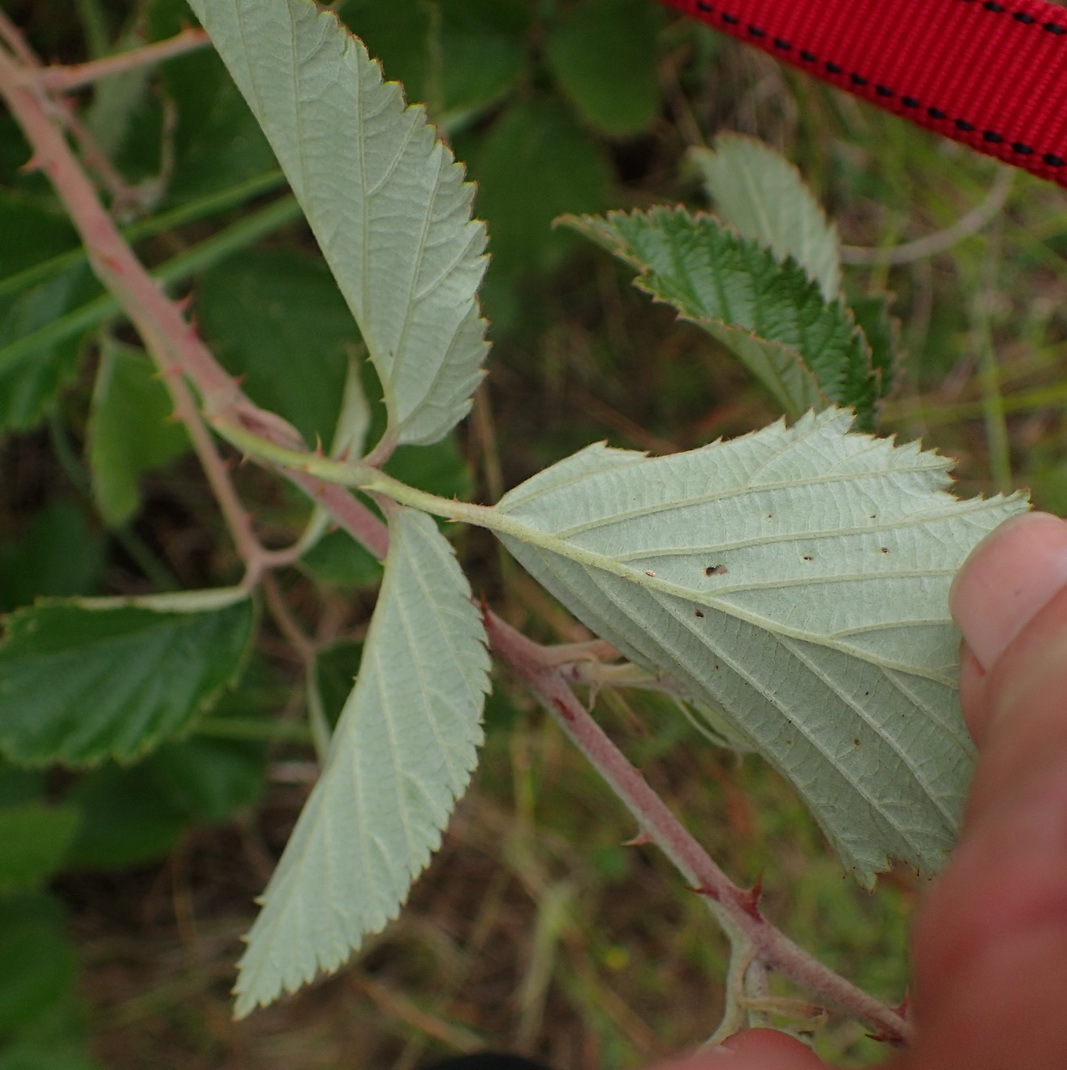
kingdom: Plantae
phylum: Tracheophyta
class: Magnoliopsida
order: Rosales
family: Rosaceae
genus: Rubus
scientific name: Rubus rigidus
